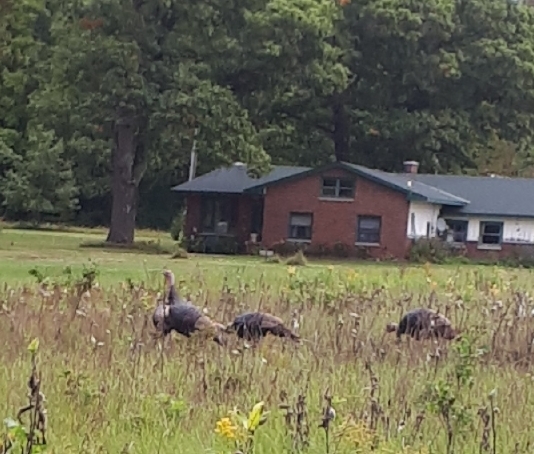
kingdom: Animalia
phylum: Chordata
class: Aves
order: Galliformes
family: Phasianidae
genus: Meleagris
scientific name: Meleagris gallopavo
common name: Wild turkey
